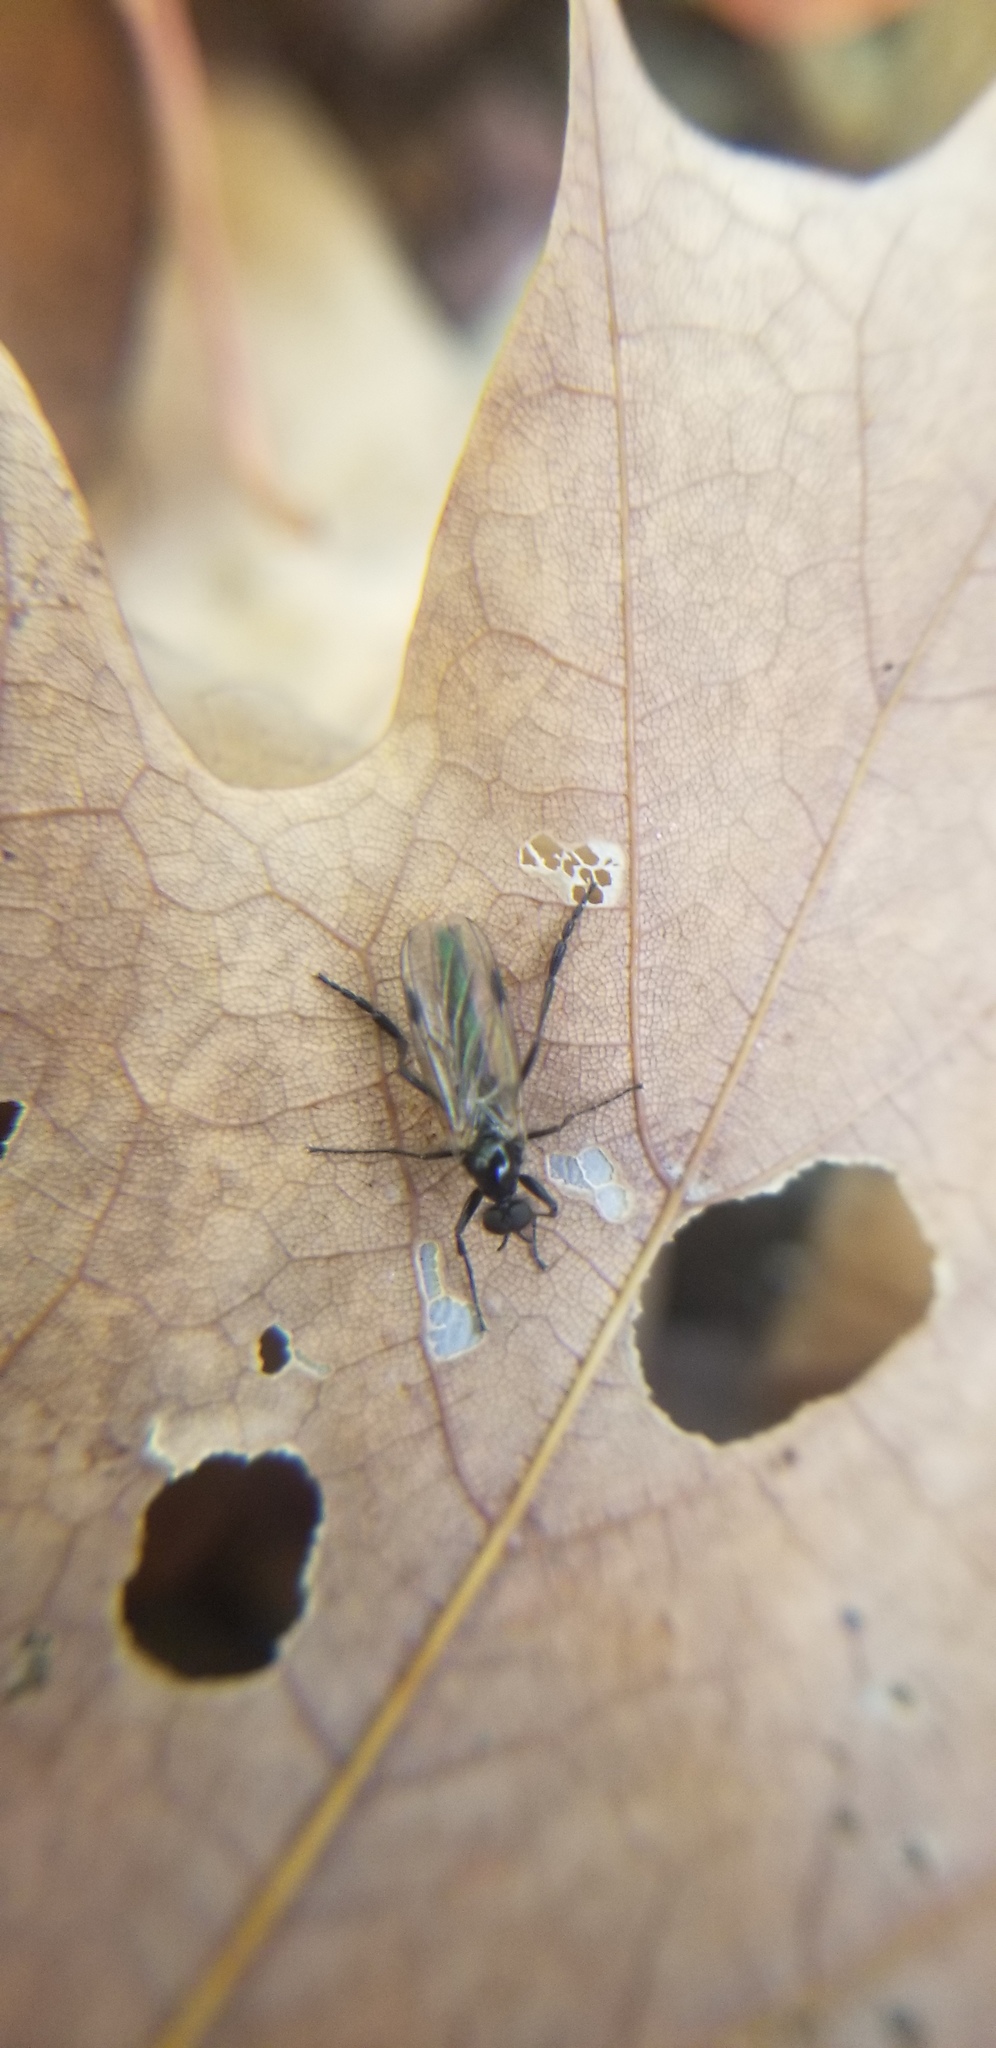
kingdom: Animalia
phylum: Arthropoda
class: Insecta
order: Diptera
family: Bibionidae
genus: Bibio
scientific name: Bibio
